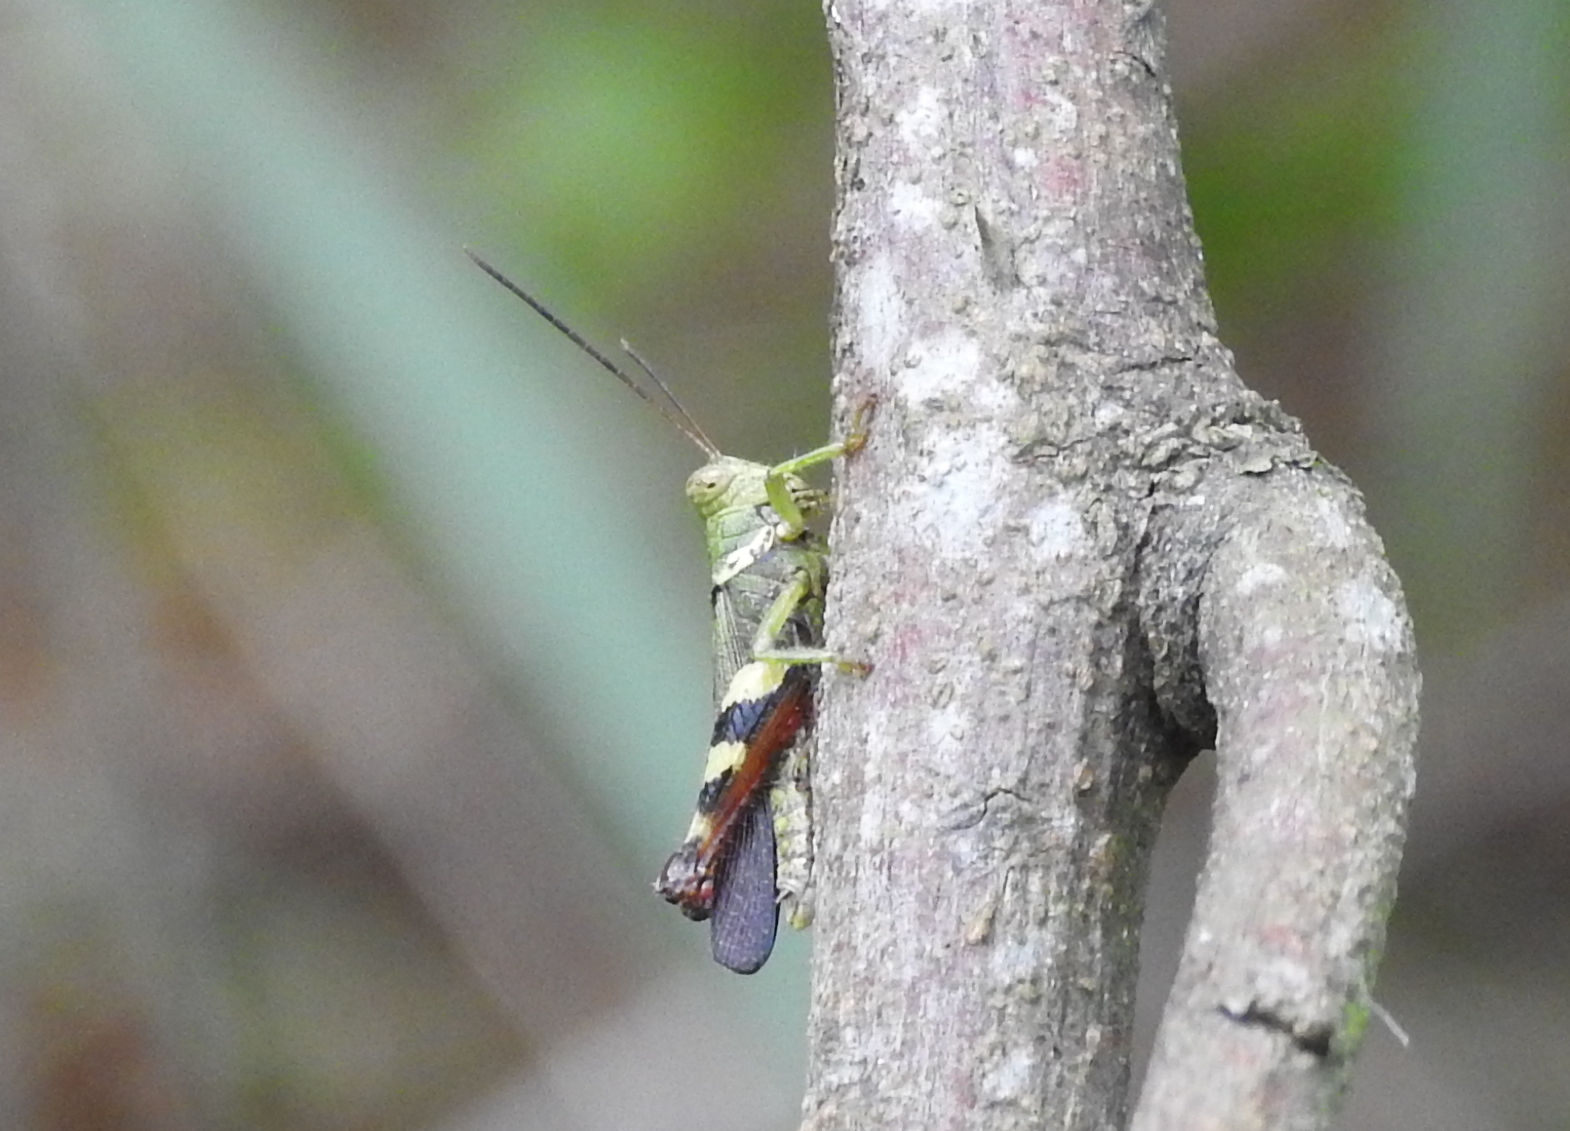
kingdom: Animalia
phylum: Arthropoda
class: Insecta
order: Orthoptera
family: Acrididae
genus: Apalacris
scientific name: Apalacris varicornis
